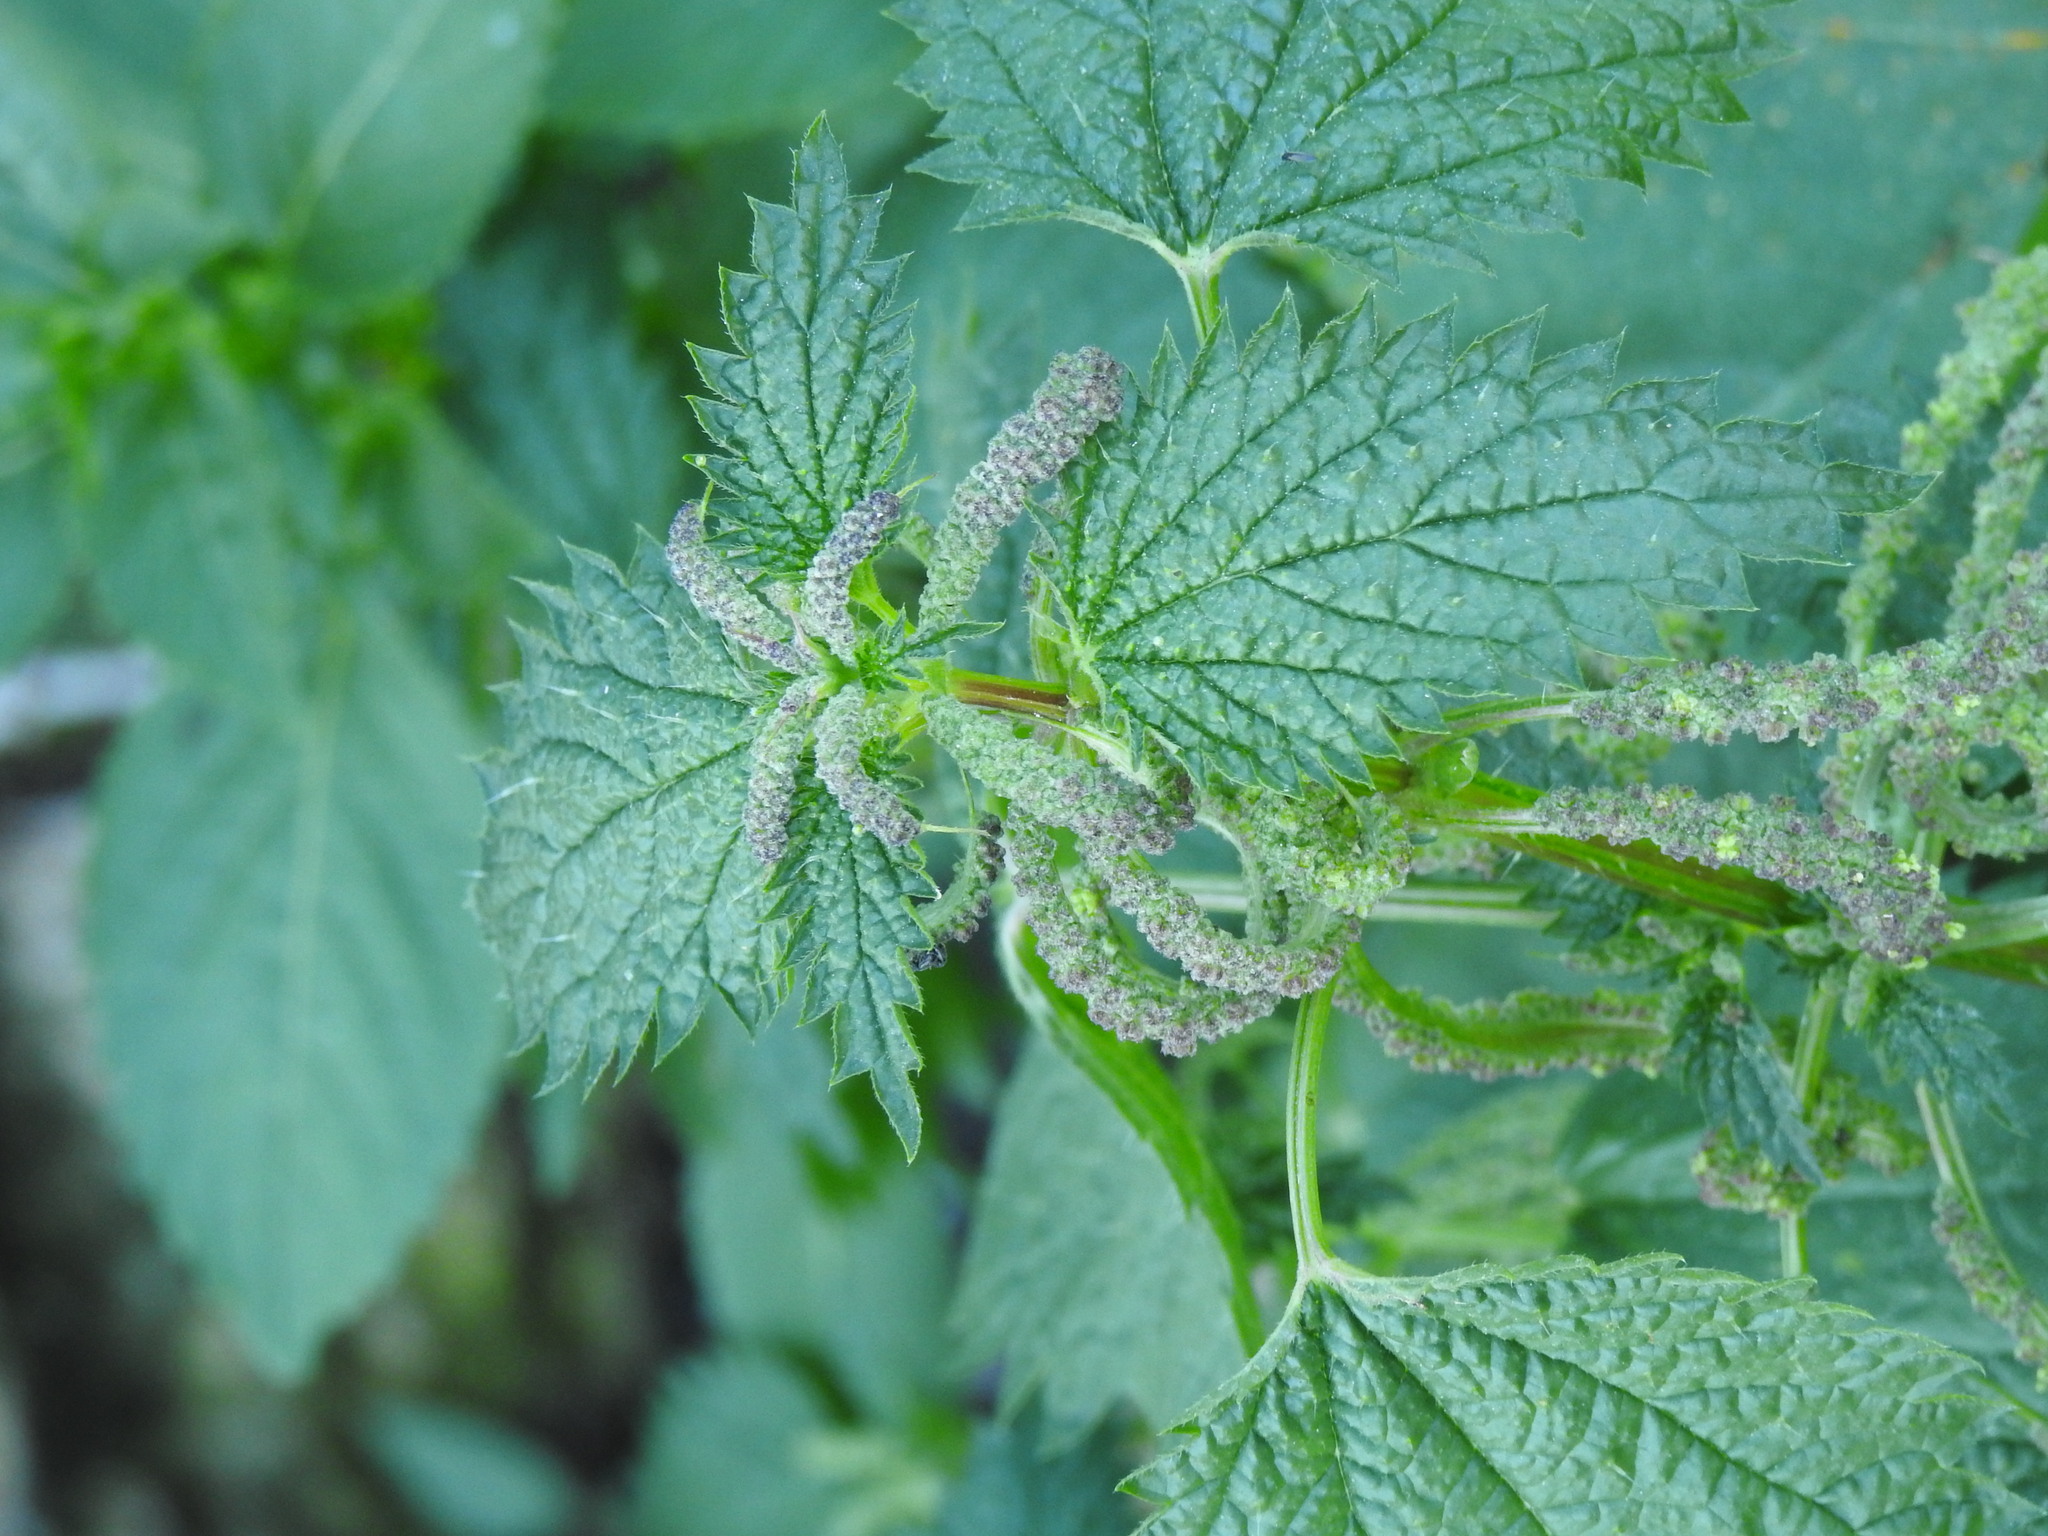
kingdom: Plantae
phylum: Tracheophyta
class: Magnoliopsida
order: Rosales
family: Urticaceae
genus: Urtica
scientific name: Urtica membranacea
